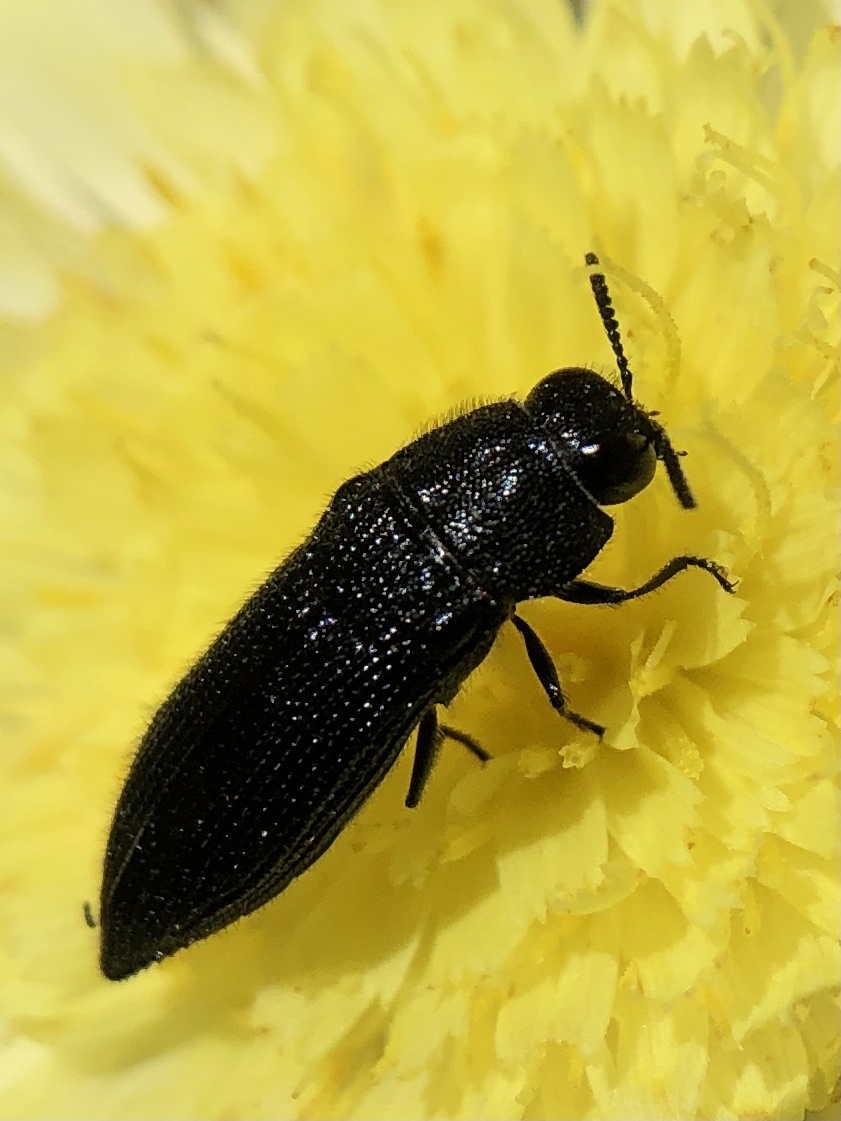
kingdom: Animalia
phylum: Arthropoda
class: Insecta
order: Coleoptera
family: Buprestidae
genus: Acmaeodera
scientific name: Acmaeodera crinita
